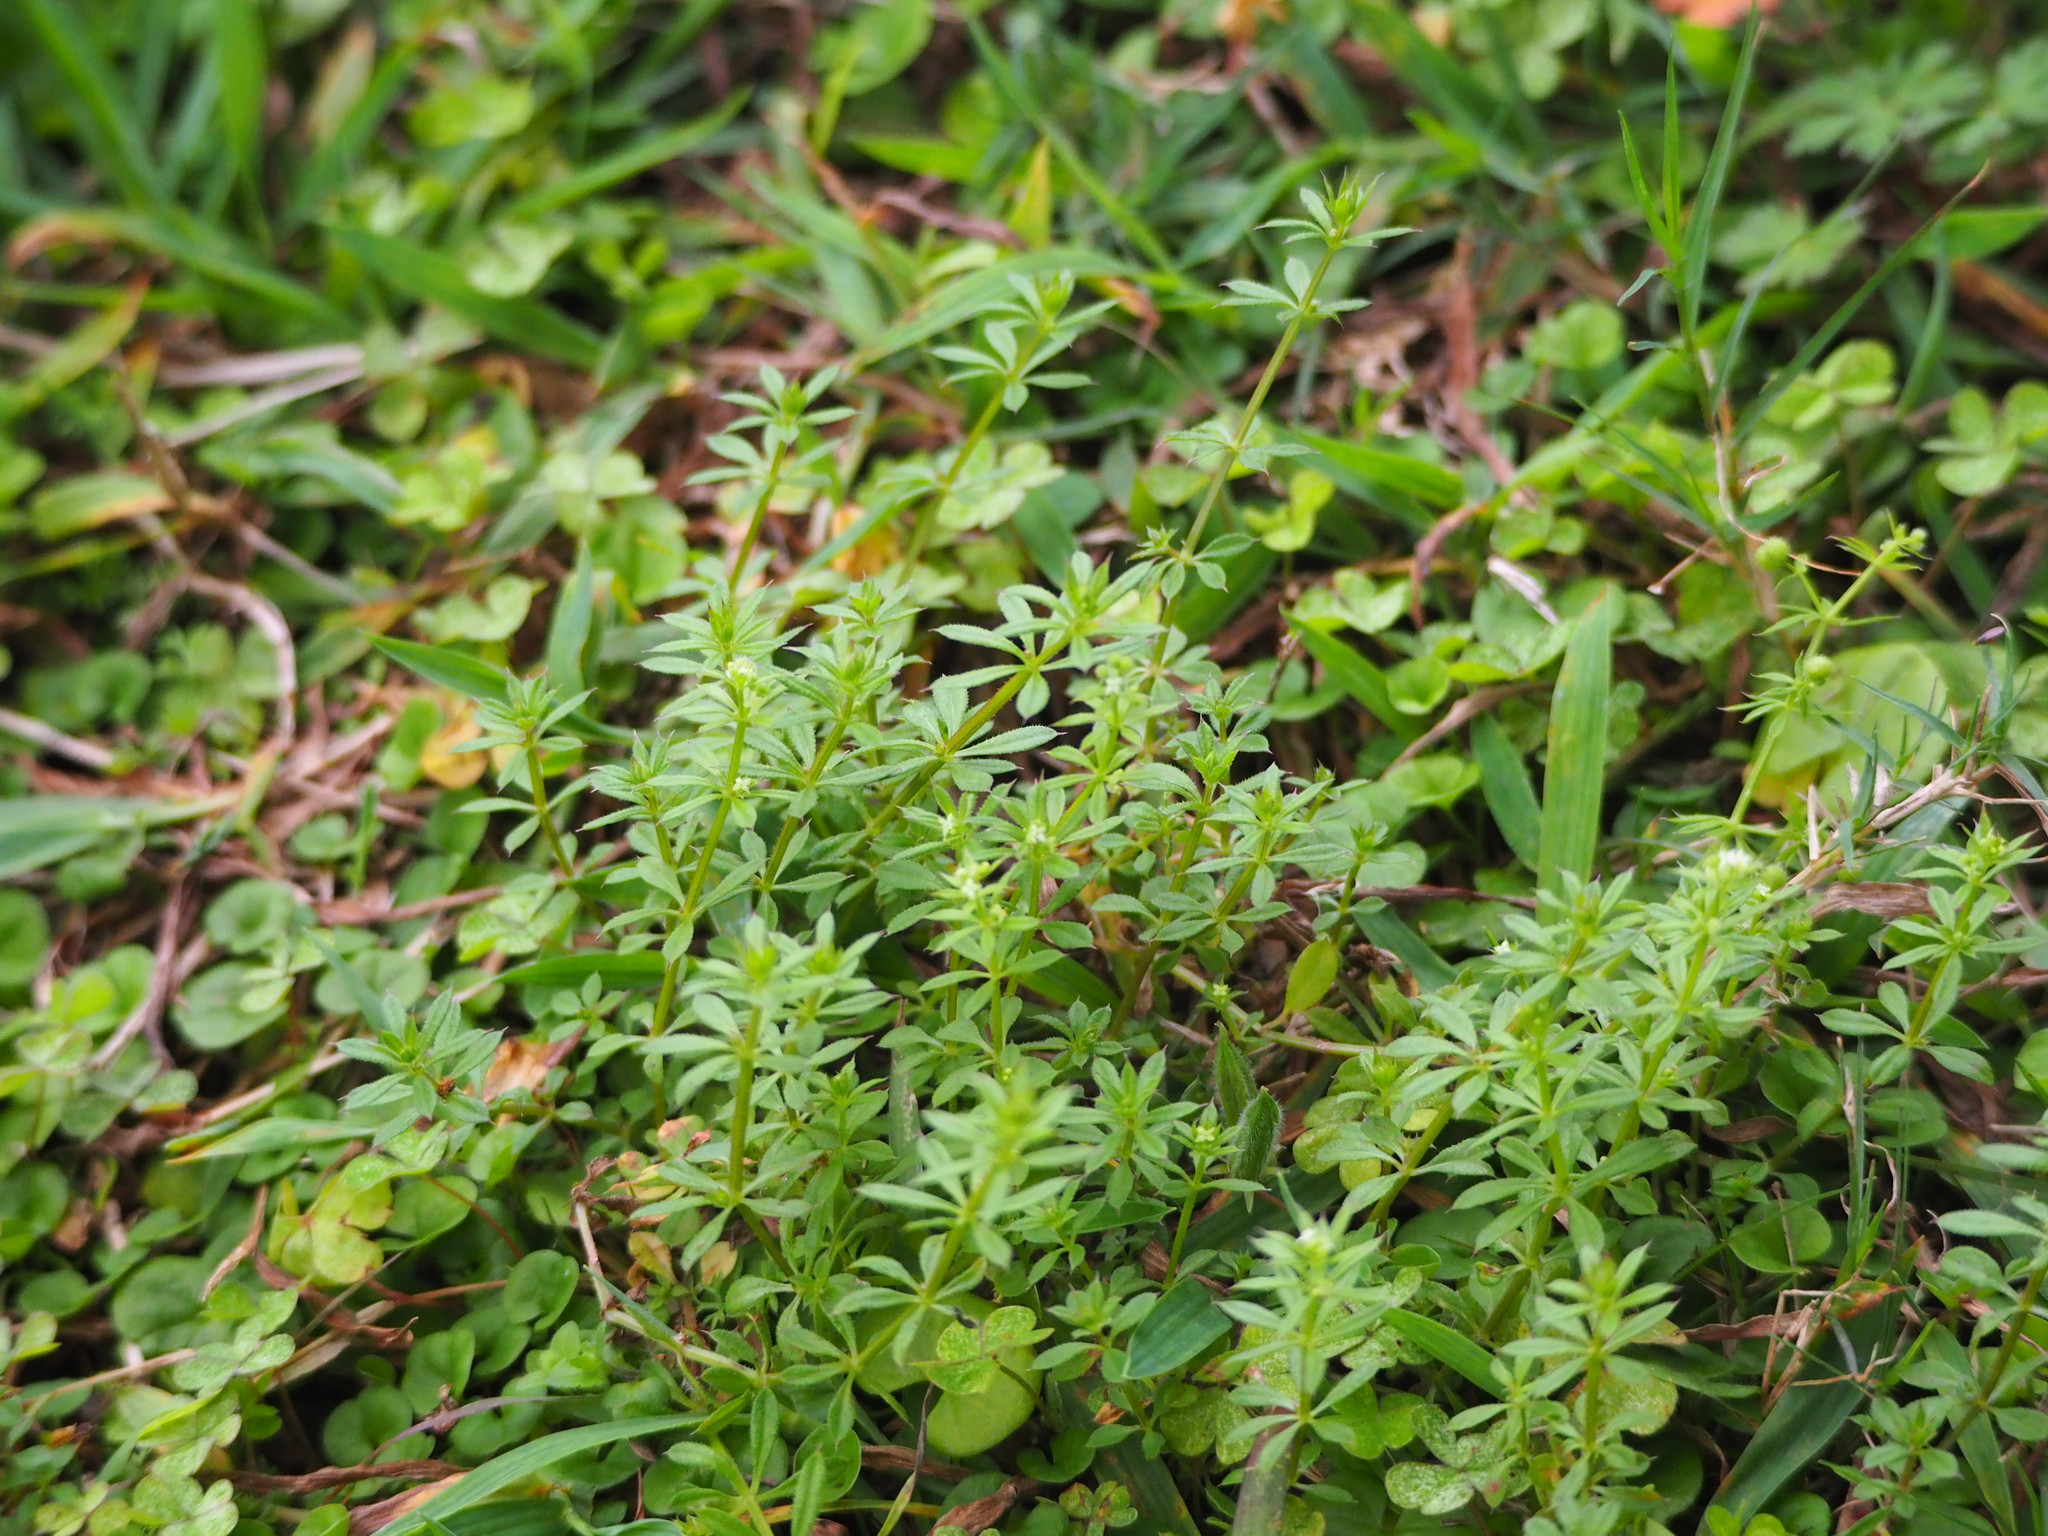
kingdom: Plantae
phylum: Tracheophyta
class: Magnoliopsida
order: Gentianales
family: Rubiaceae
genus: Galium
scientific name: Galium spurium
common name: False cleavers
